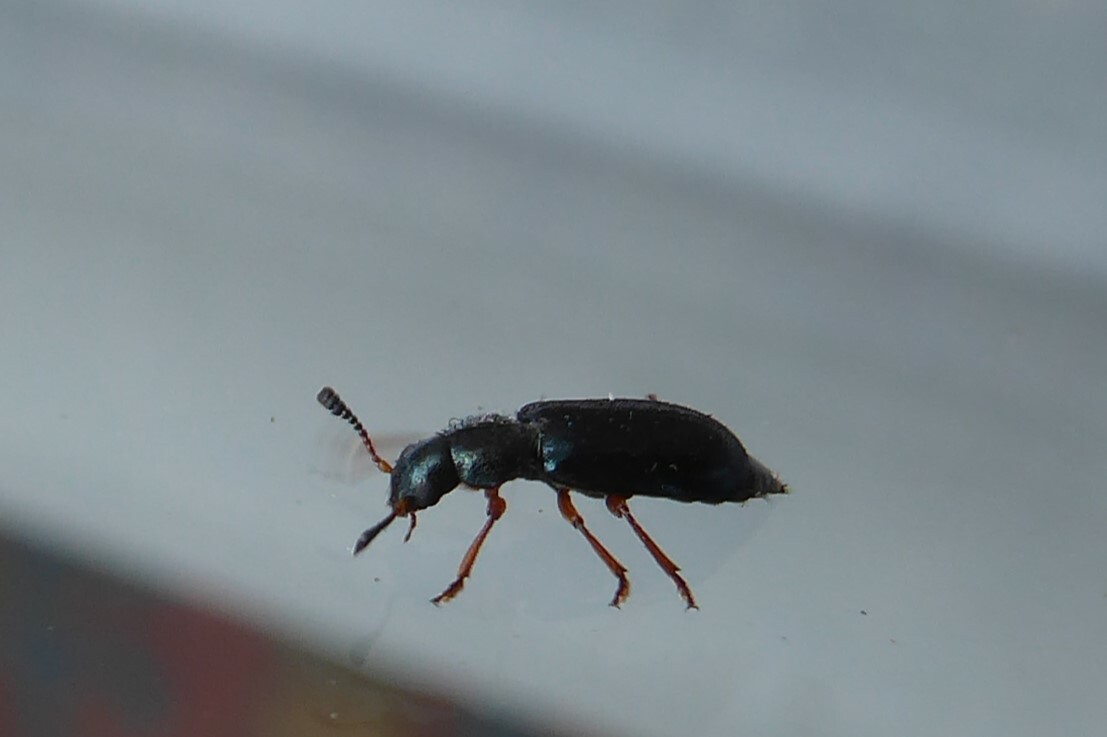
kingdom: Animalia
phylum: Arthropoda
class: Insecta
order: Coleoptera
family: Cleridae
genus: Necrobia
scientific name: Necrobia rufipes
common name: Red-legged ham beetle
